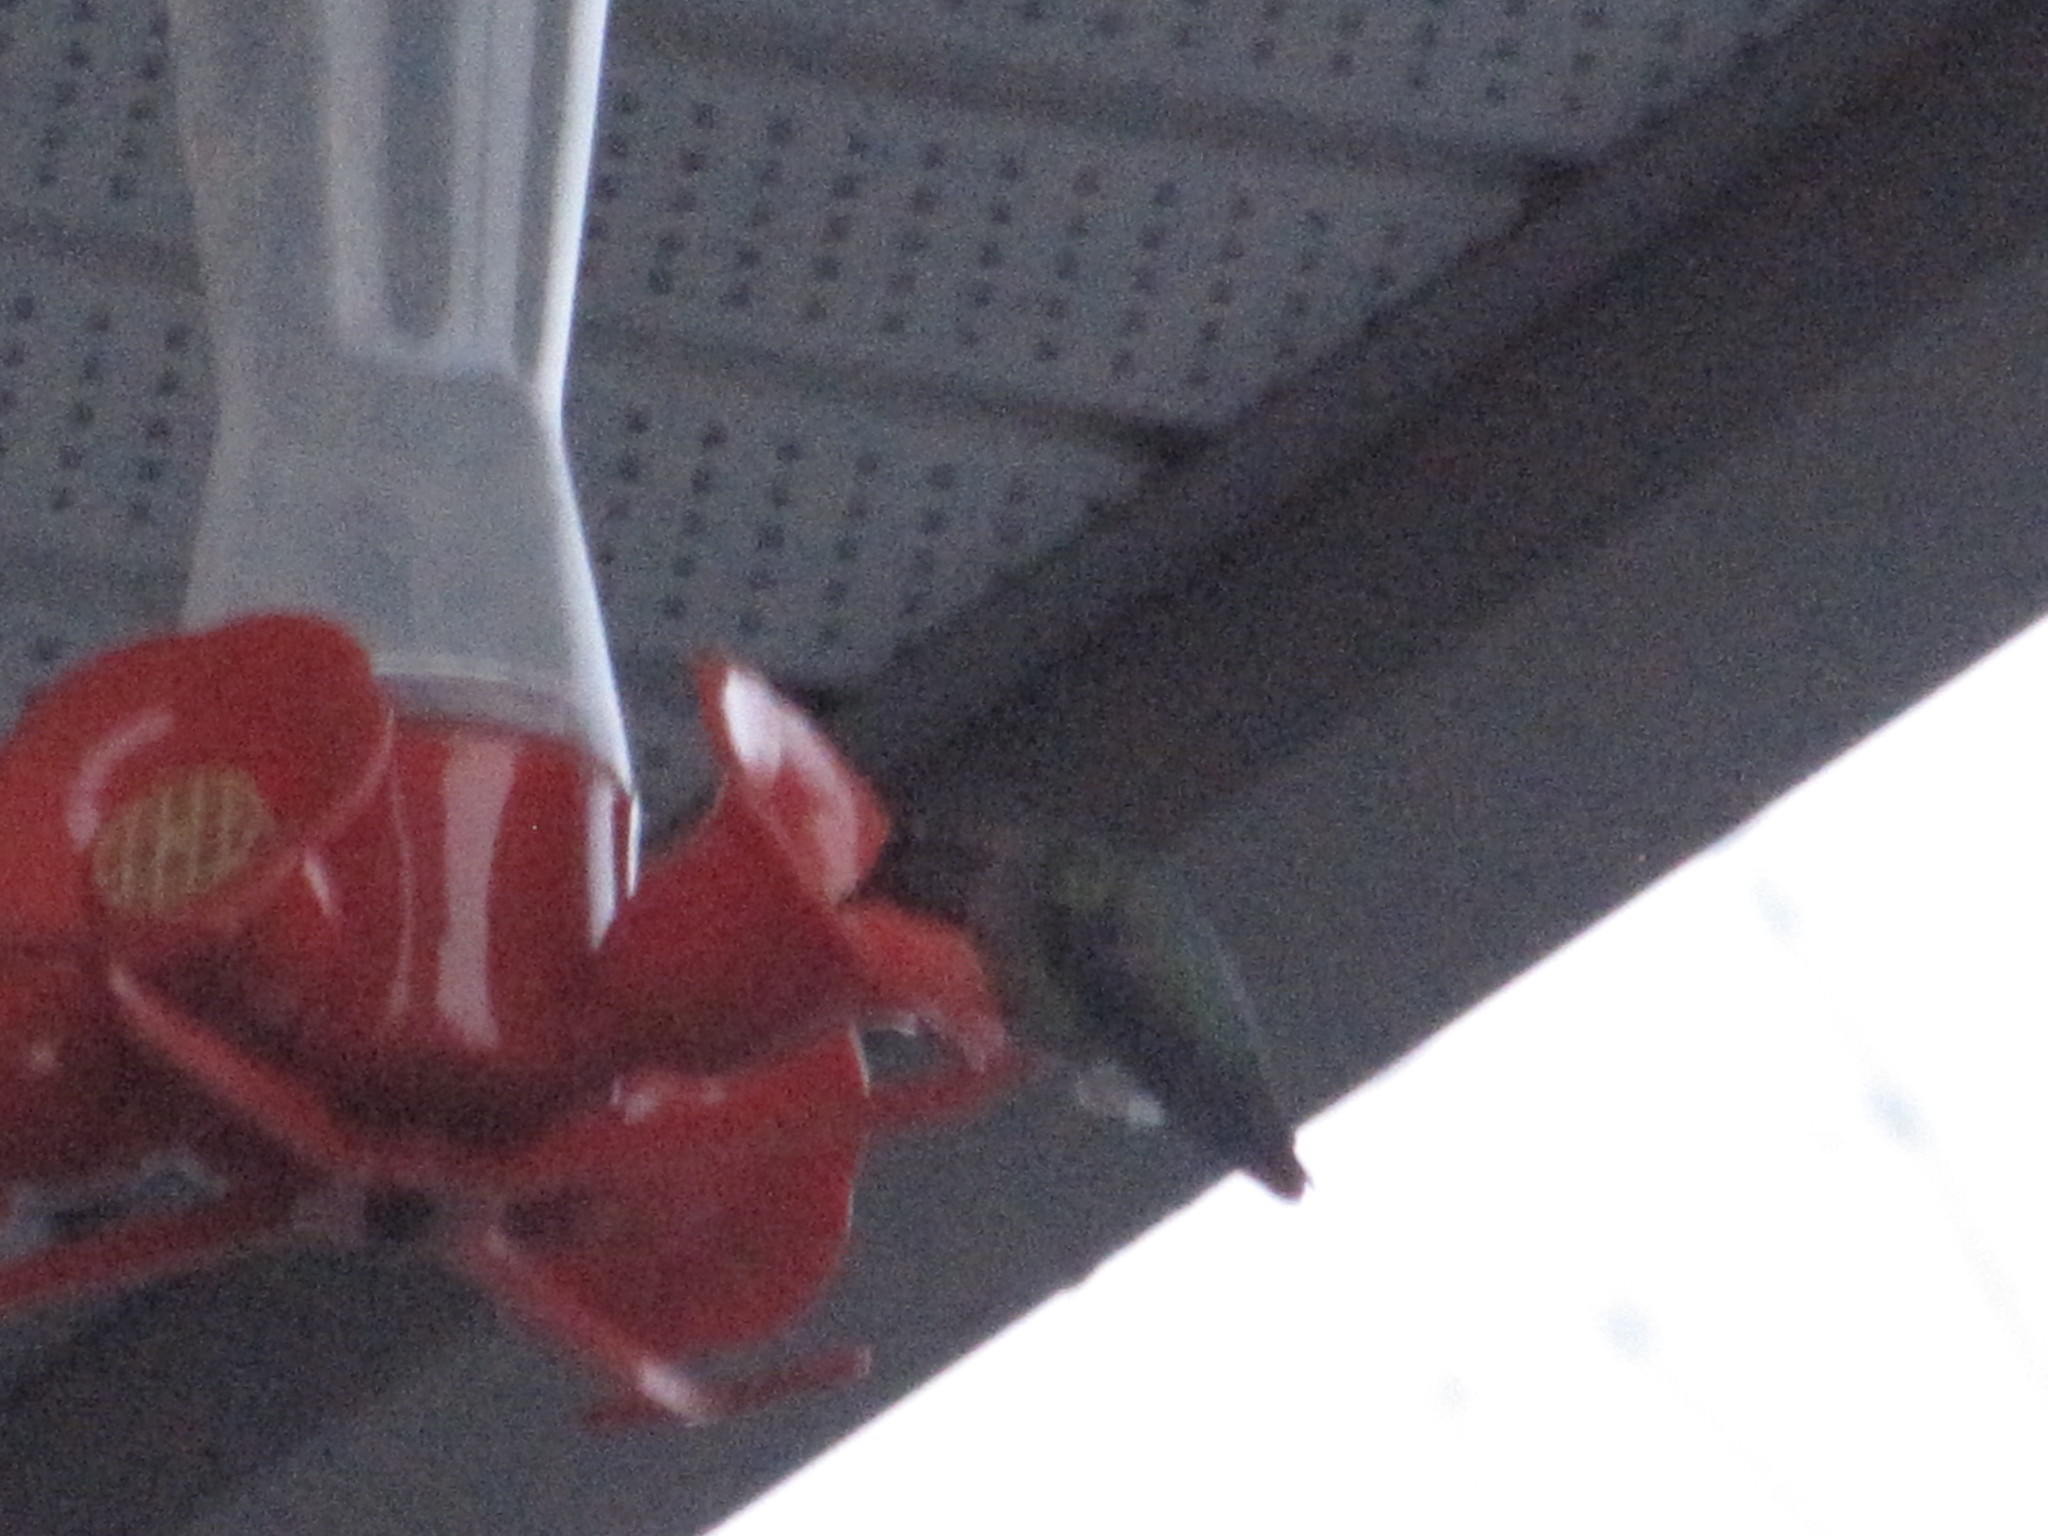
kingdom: Animalia
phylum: Chordata
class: Aves
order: Apodiformes
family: Trochilidae
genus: Calypte
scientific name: Calypte anna
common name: Anna's hummingbird
